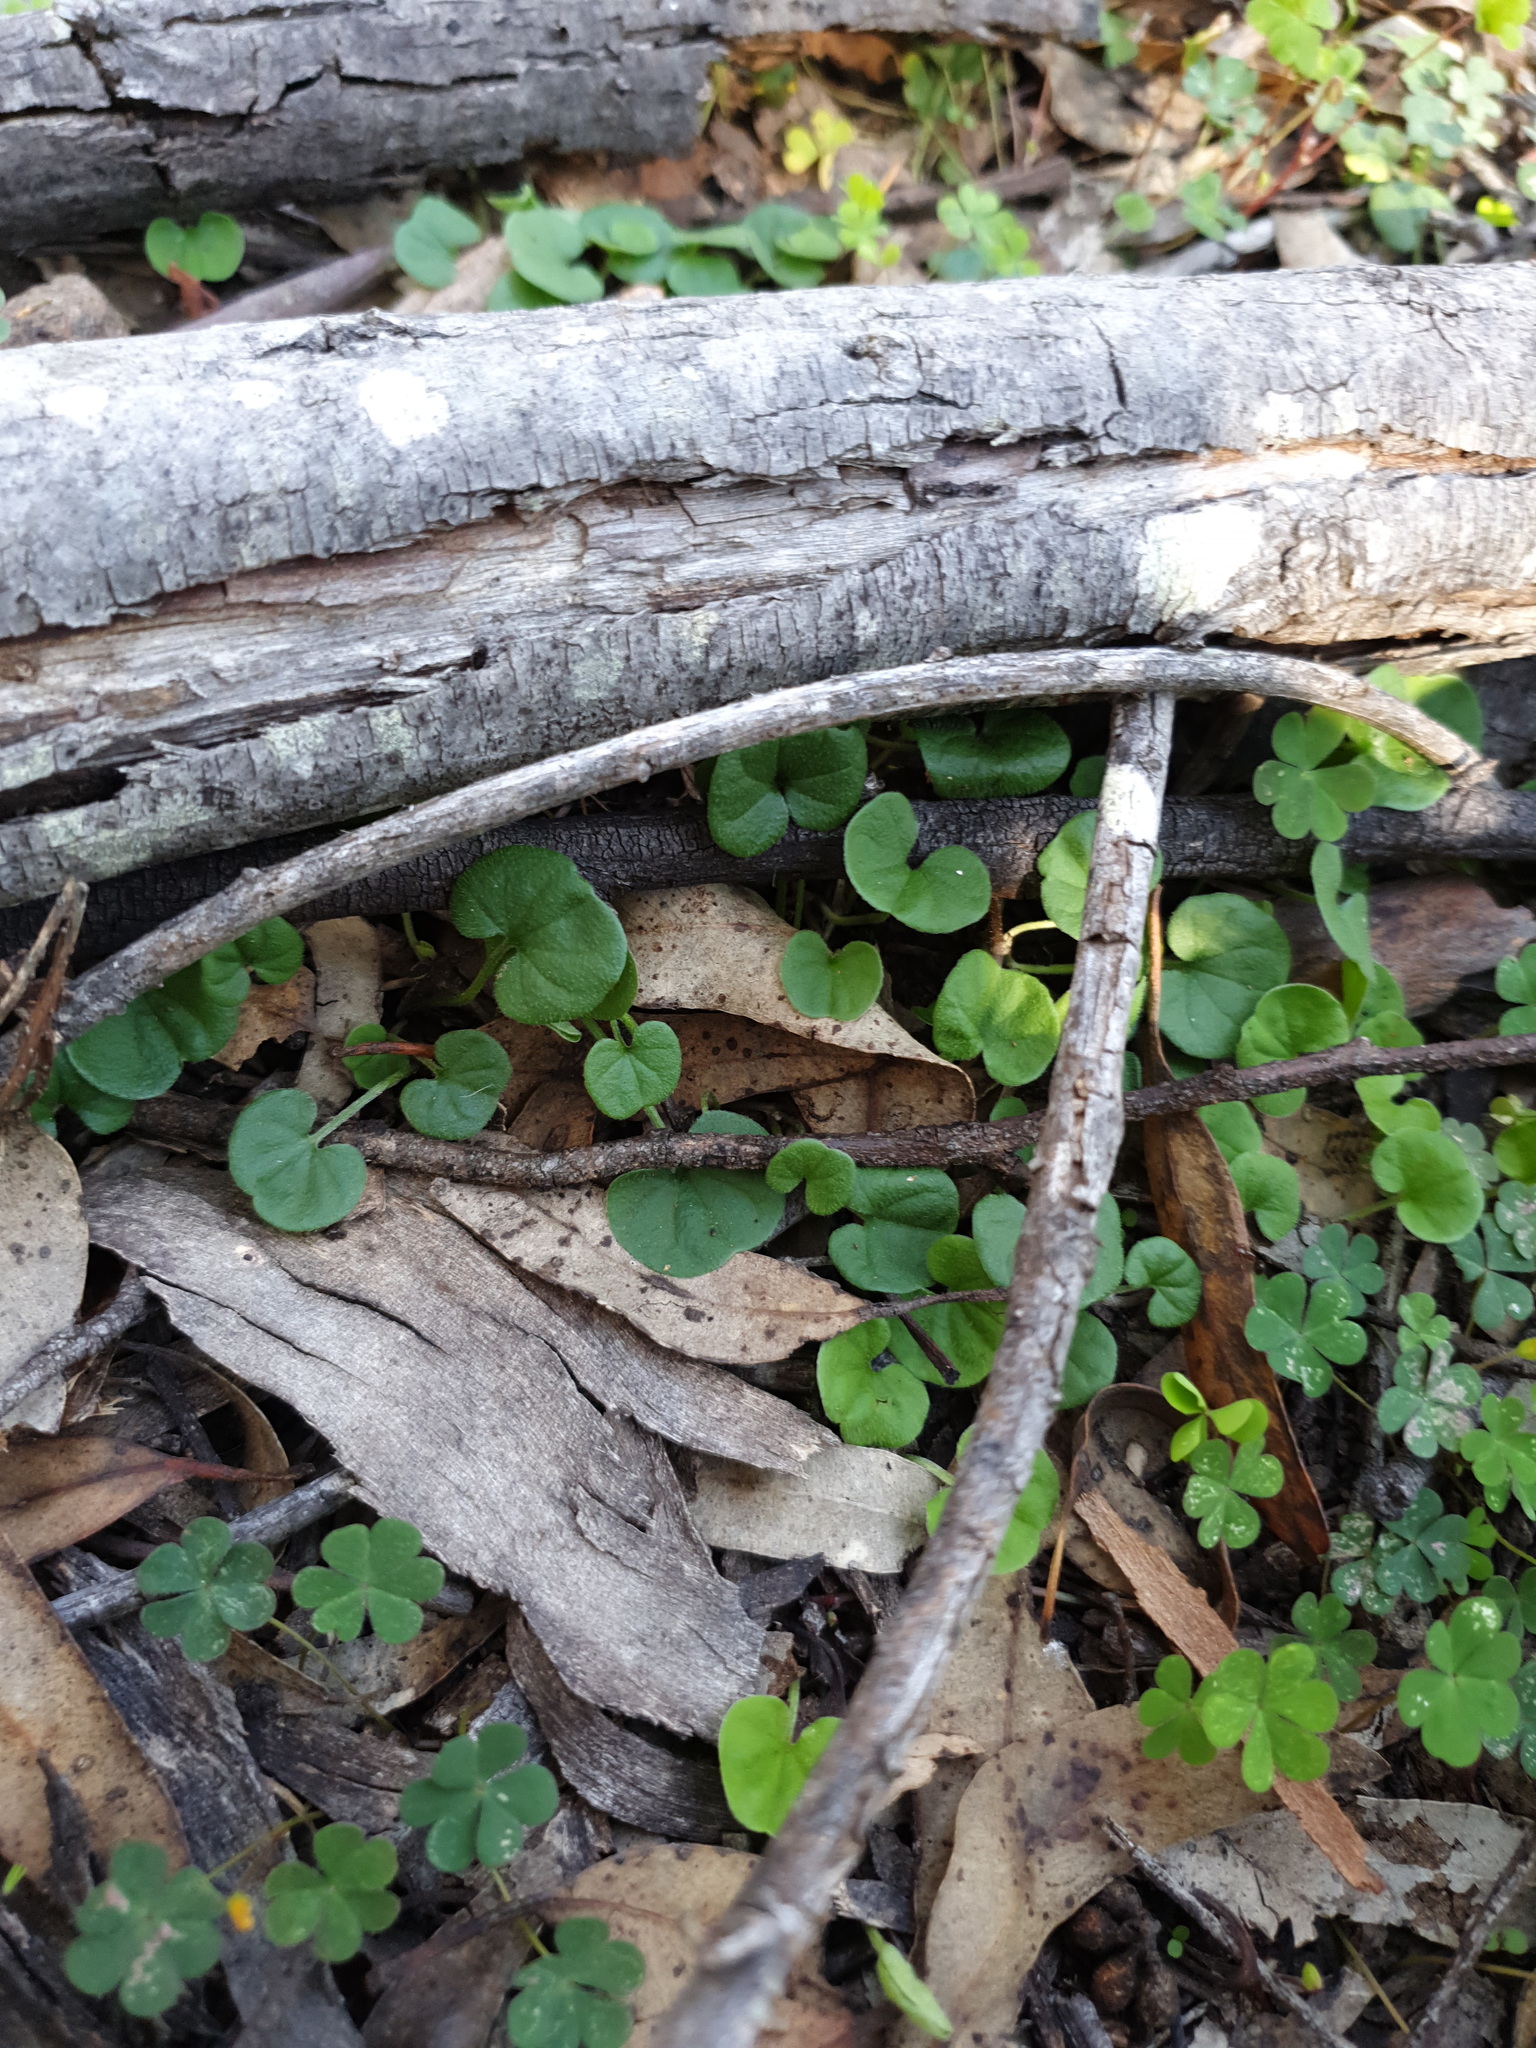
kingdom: Plantae
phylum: Tracheophyta
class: Magnoliopsida
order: Solanales
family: Convolvulaceae
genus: Dichondra
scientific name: Dichondra repens
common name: Kidneyweed
